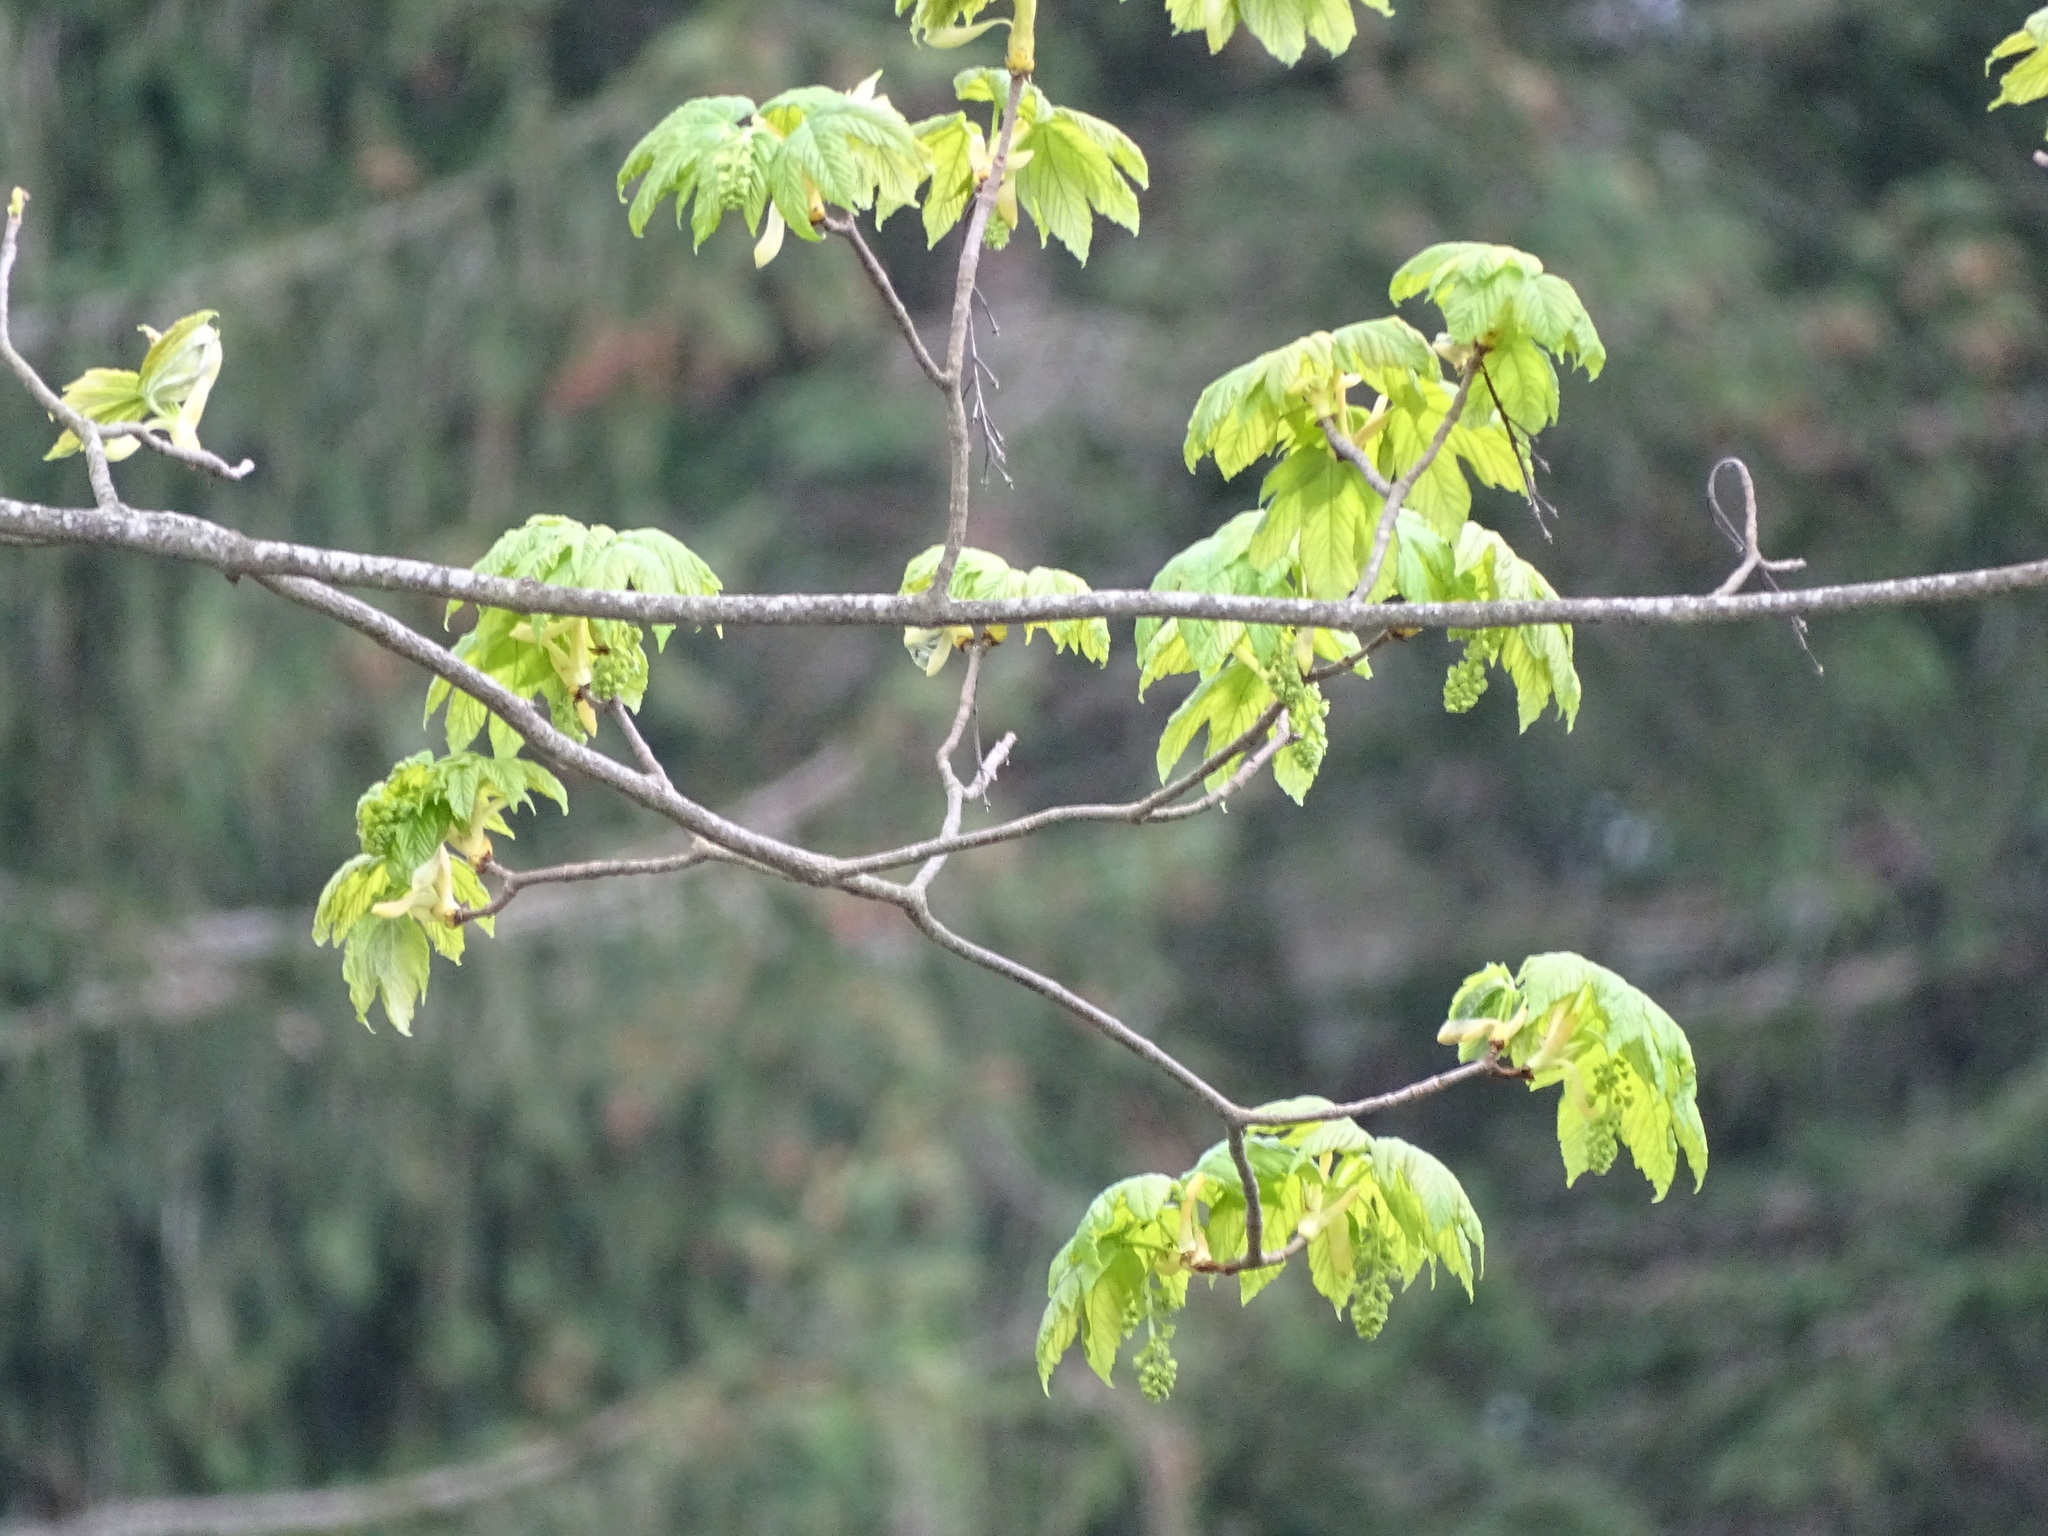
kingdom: Plantae
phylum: Tracheophyta
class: Magnoliopsida
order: Sapindales
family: Sapindaceae
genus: Acer
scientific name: Acer pseudoplatanus
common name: Sycamore
